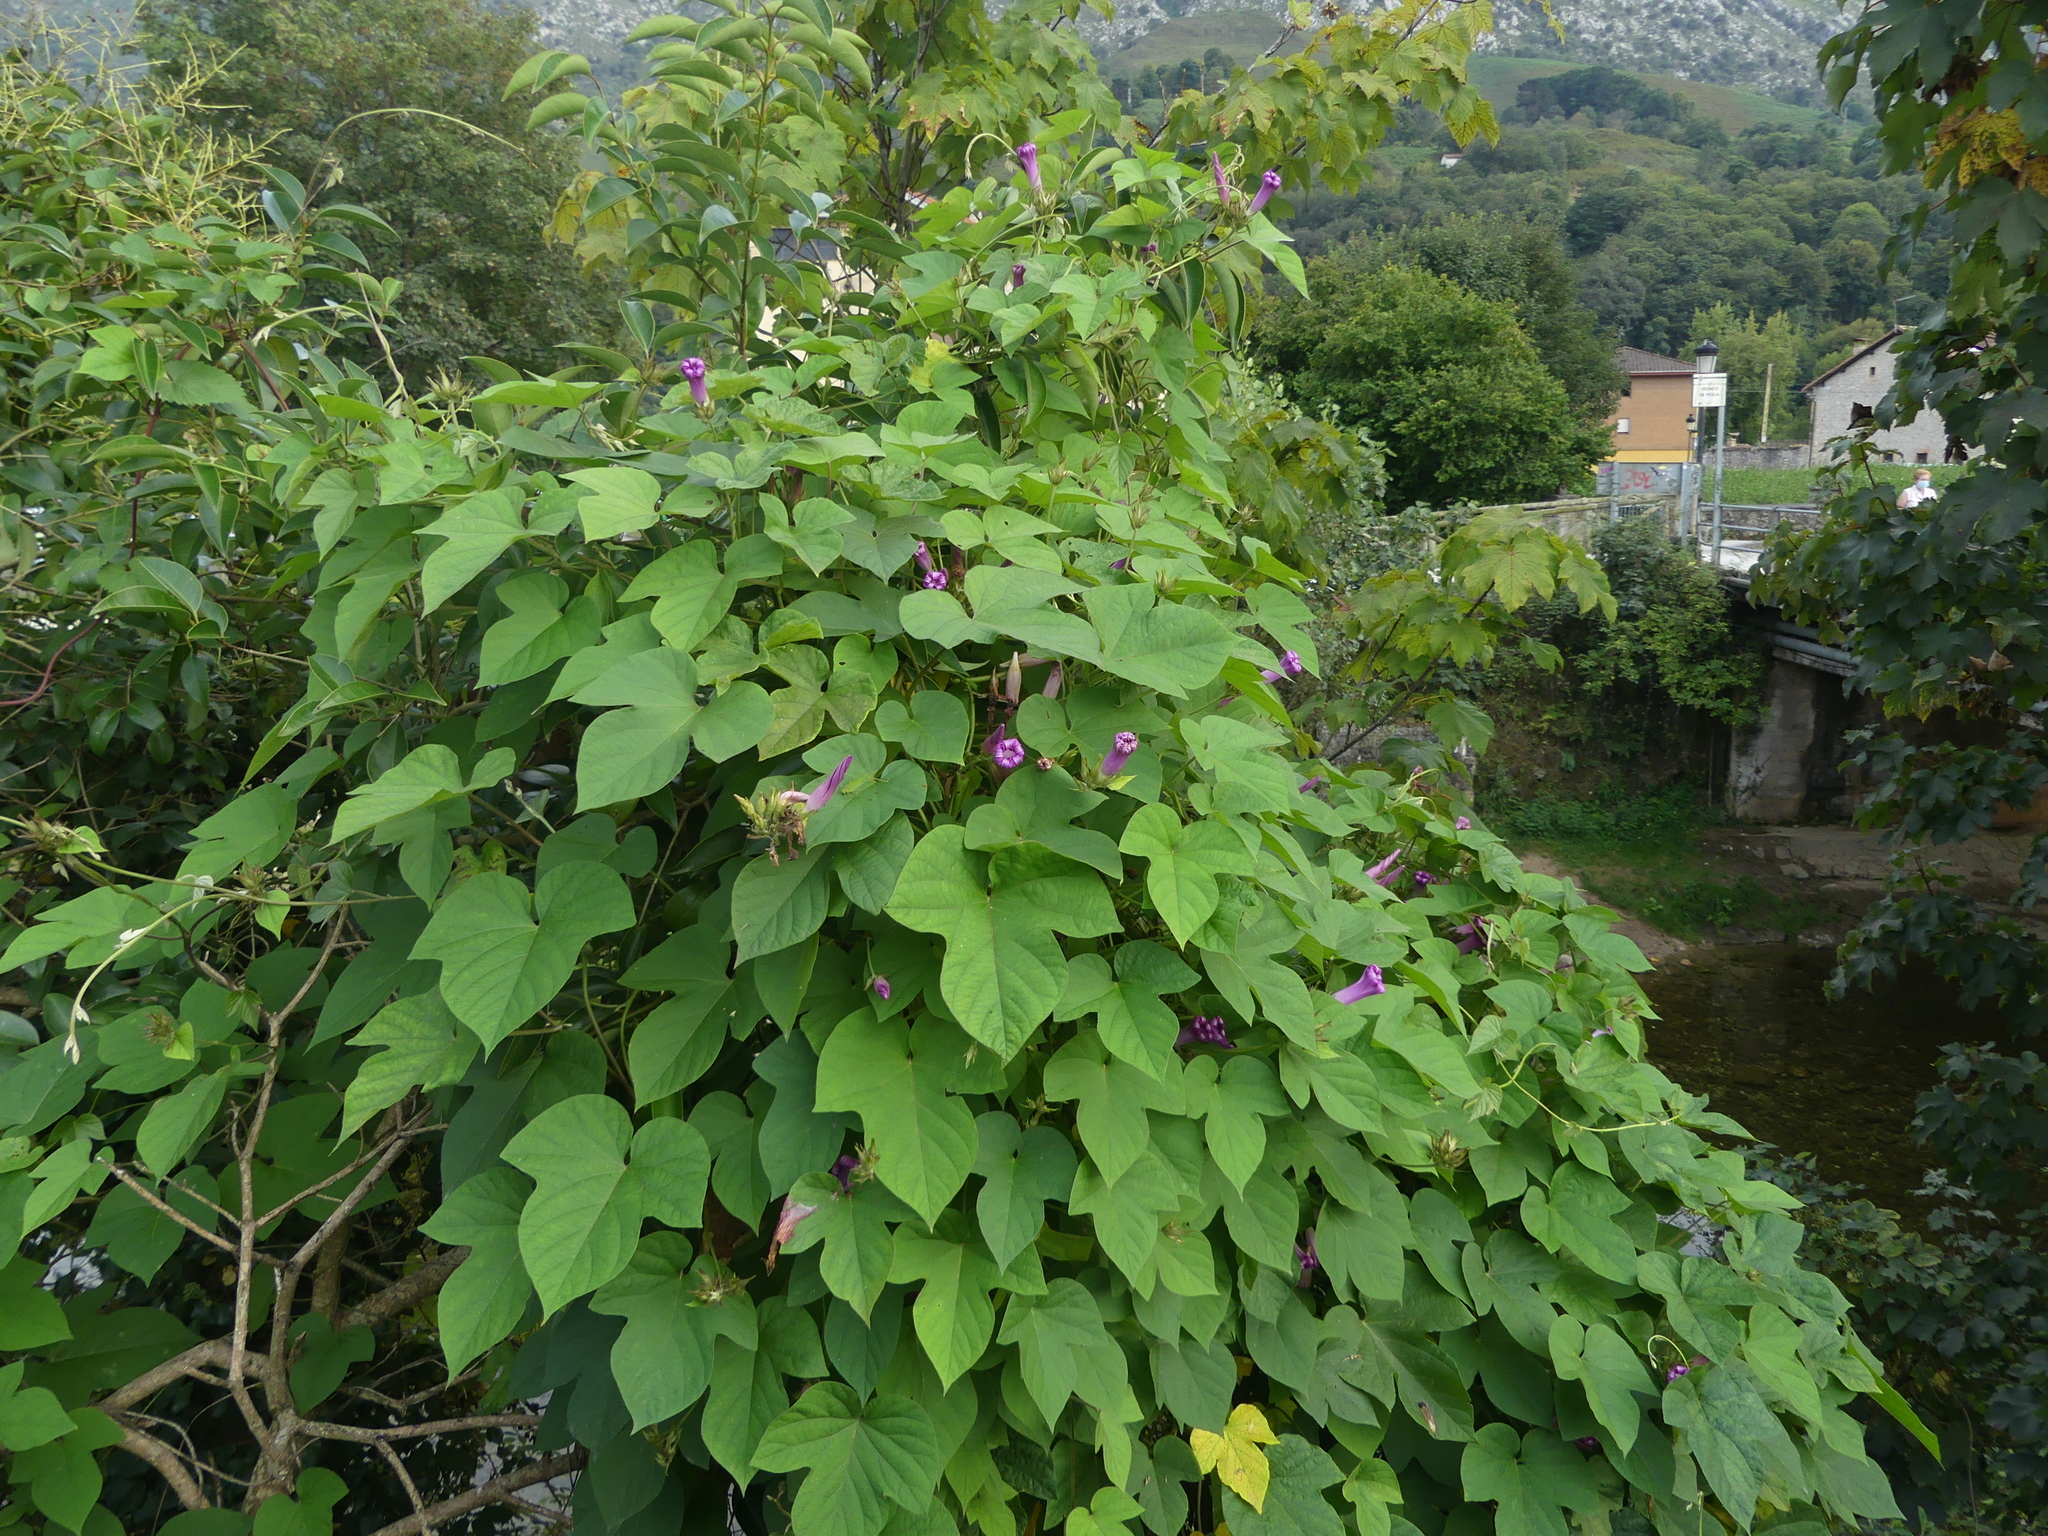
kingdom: Plantae
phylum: Tracheophyta
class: Magnoliopsida
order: Solanales
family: Convolvulaceae
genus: Ipomoea
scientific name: Ipomoea indica
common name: Blue dawnflower
